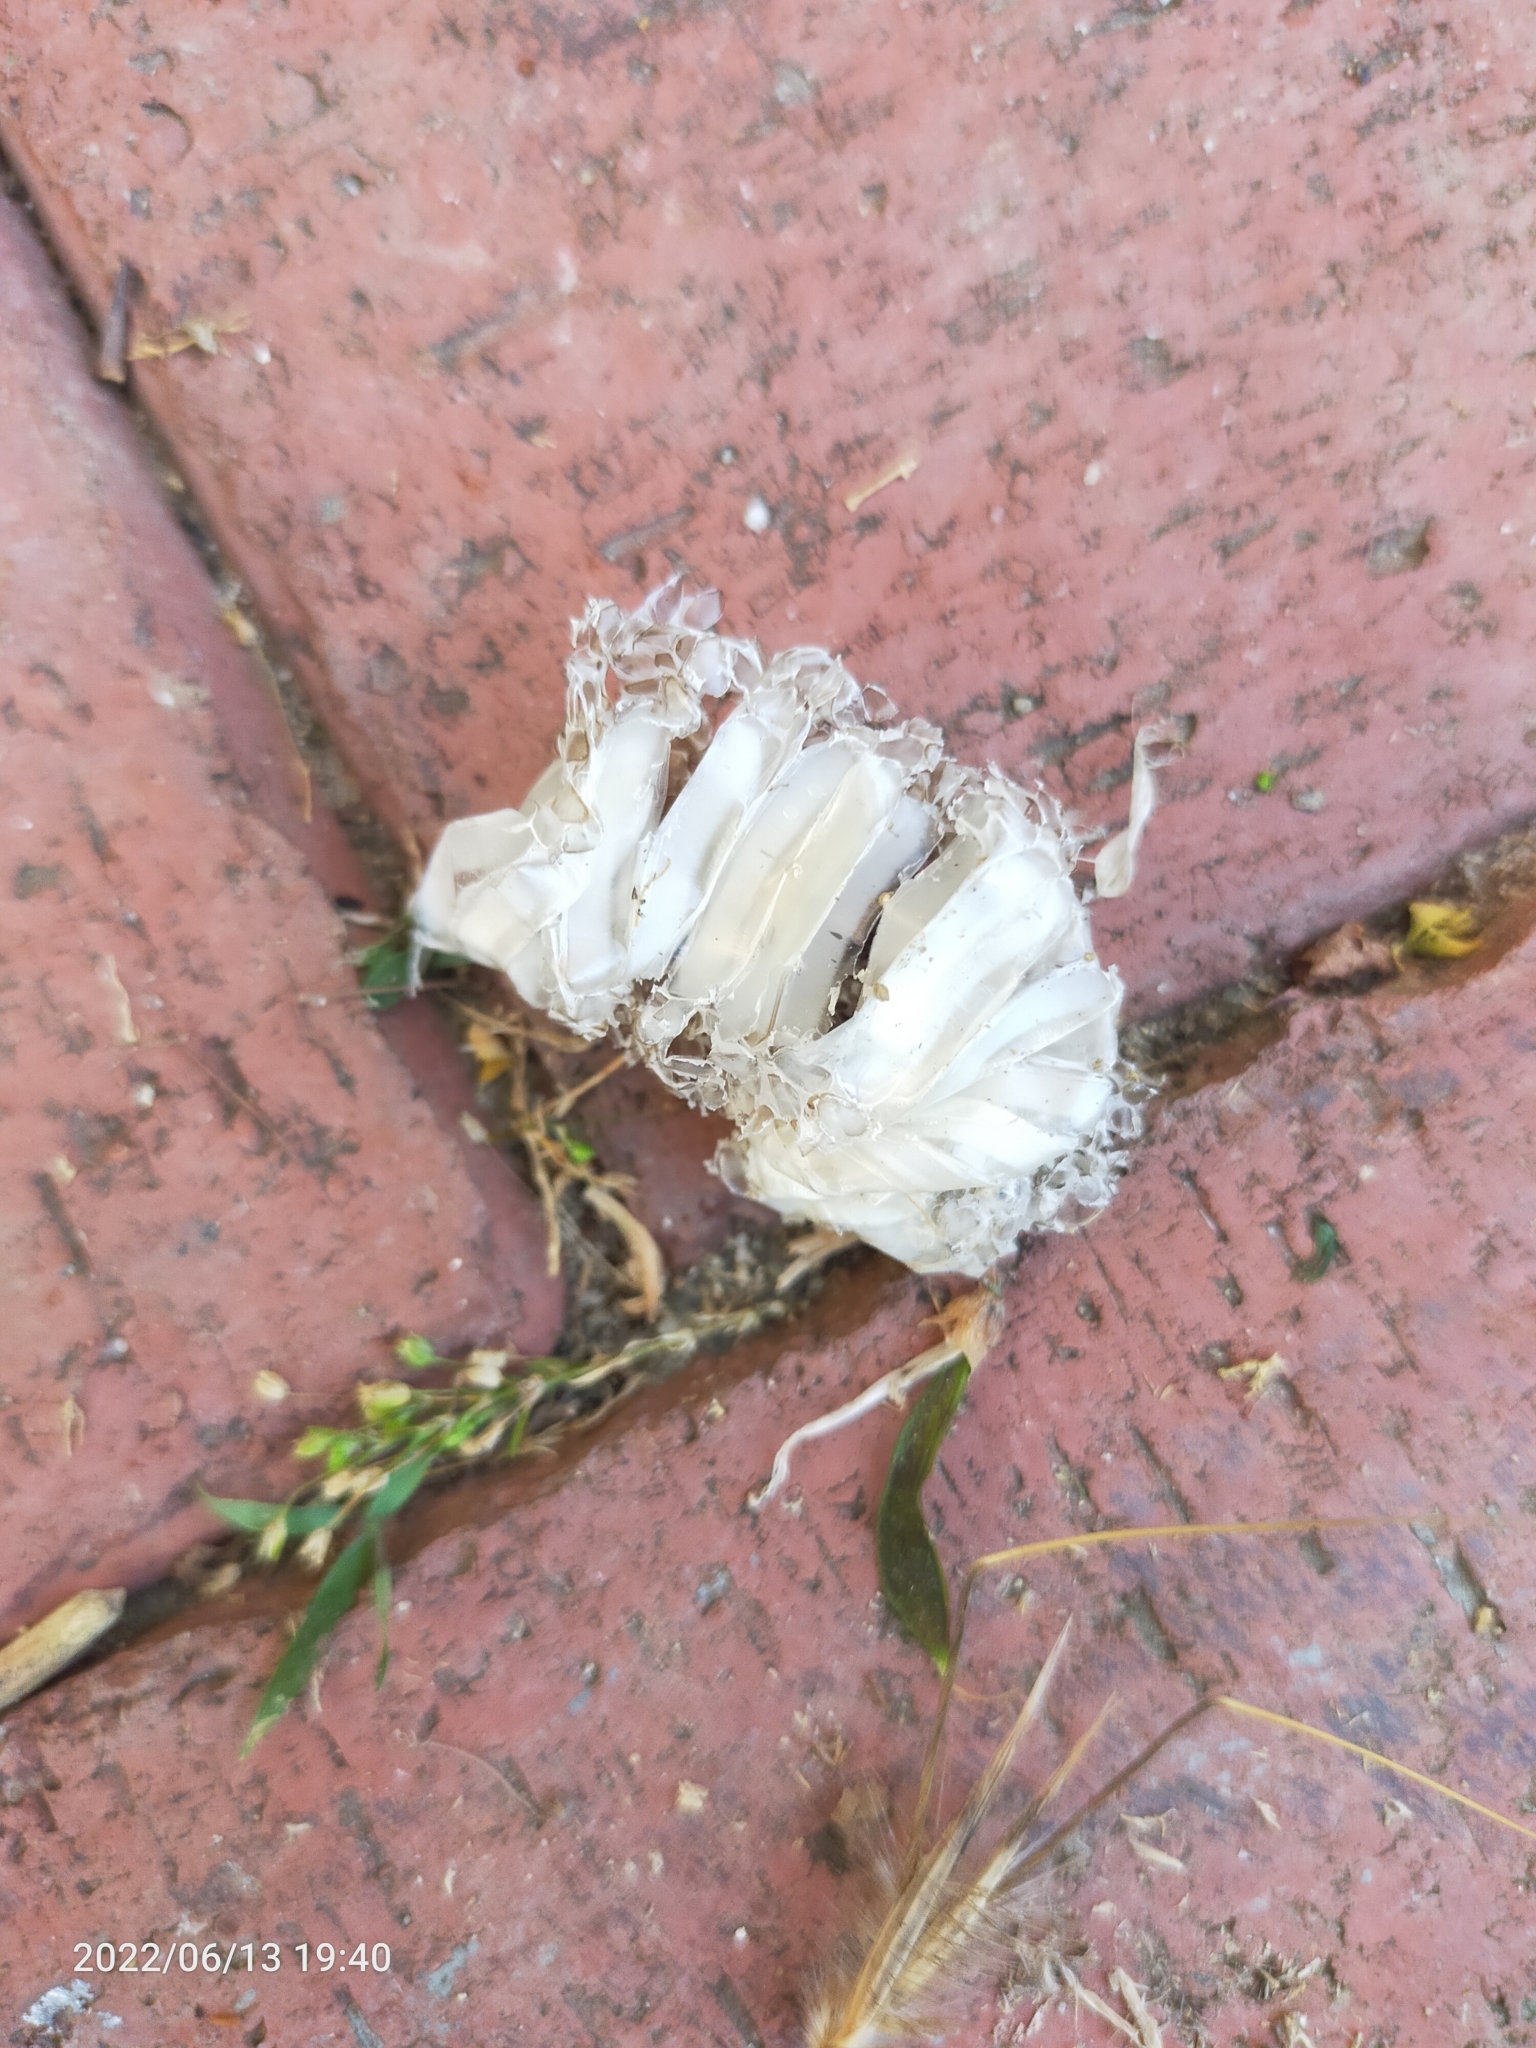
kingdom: Animalia
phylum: Chordata
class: Squamata
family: Colubridae
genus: Dolichophis
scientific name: Dolichophis caspius
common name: Large whip snake
